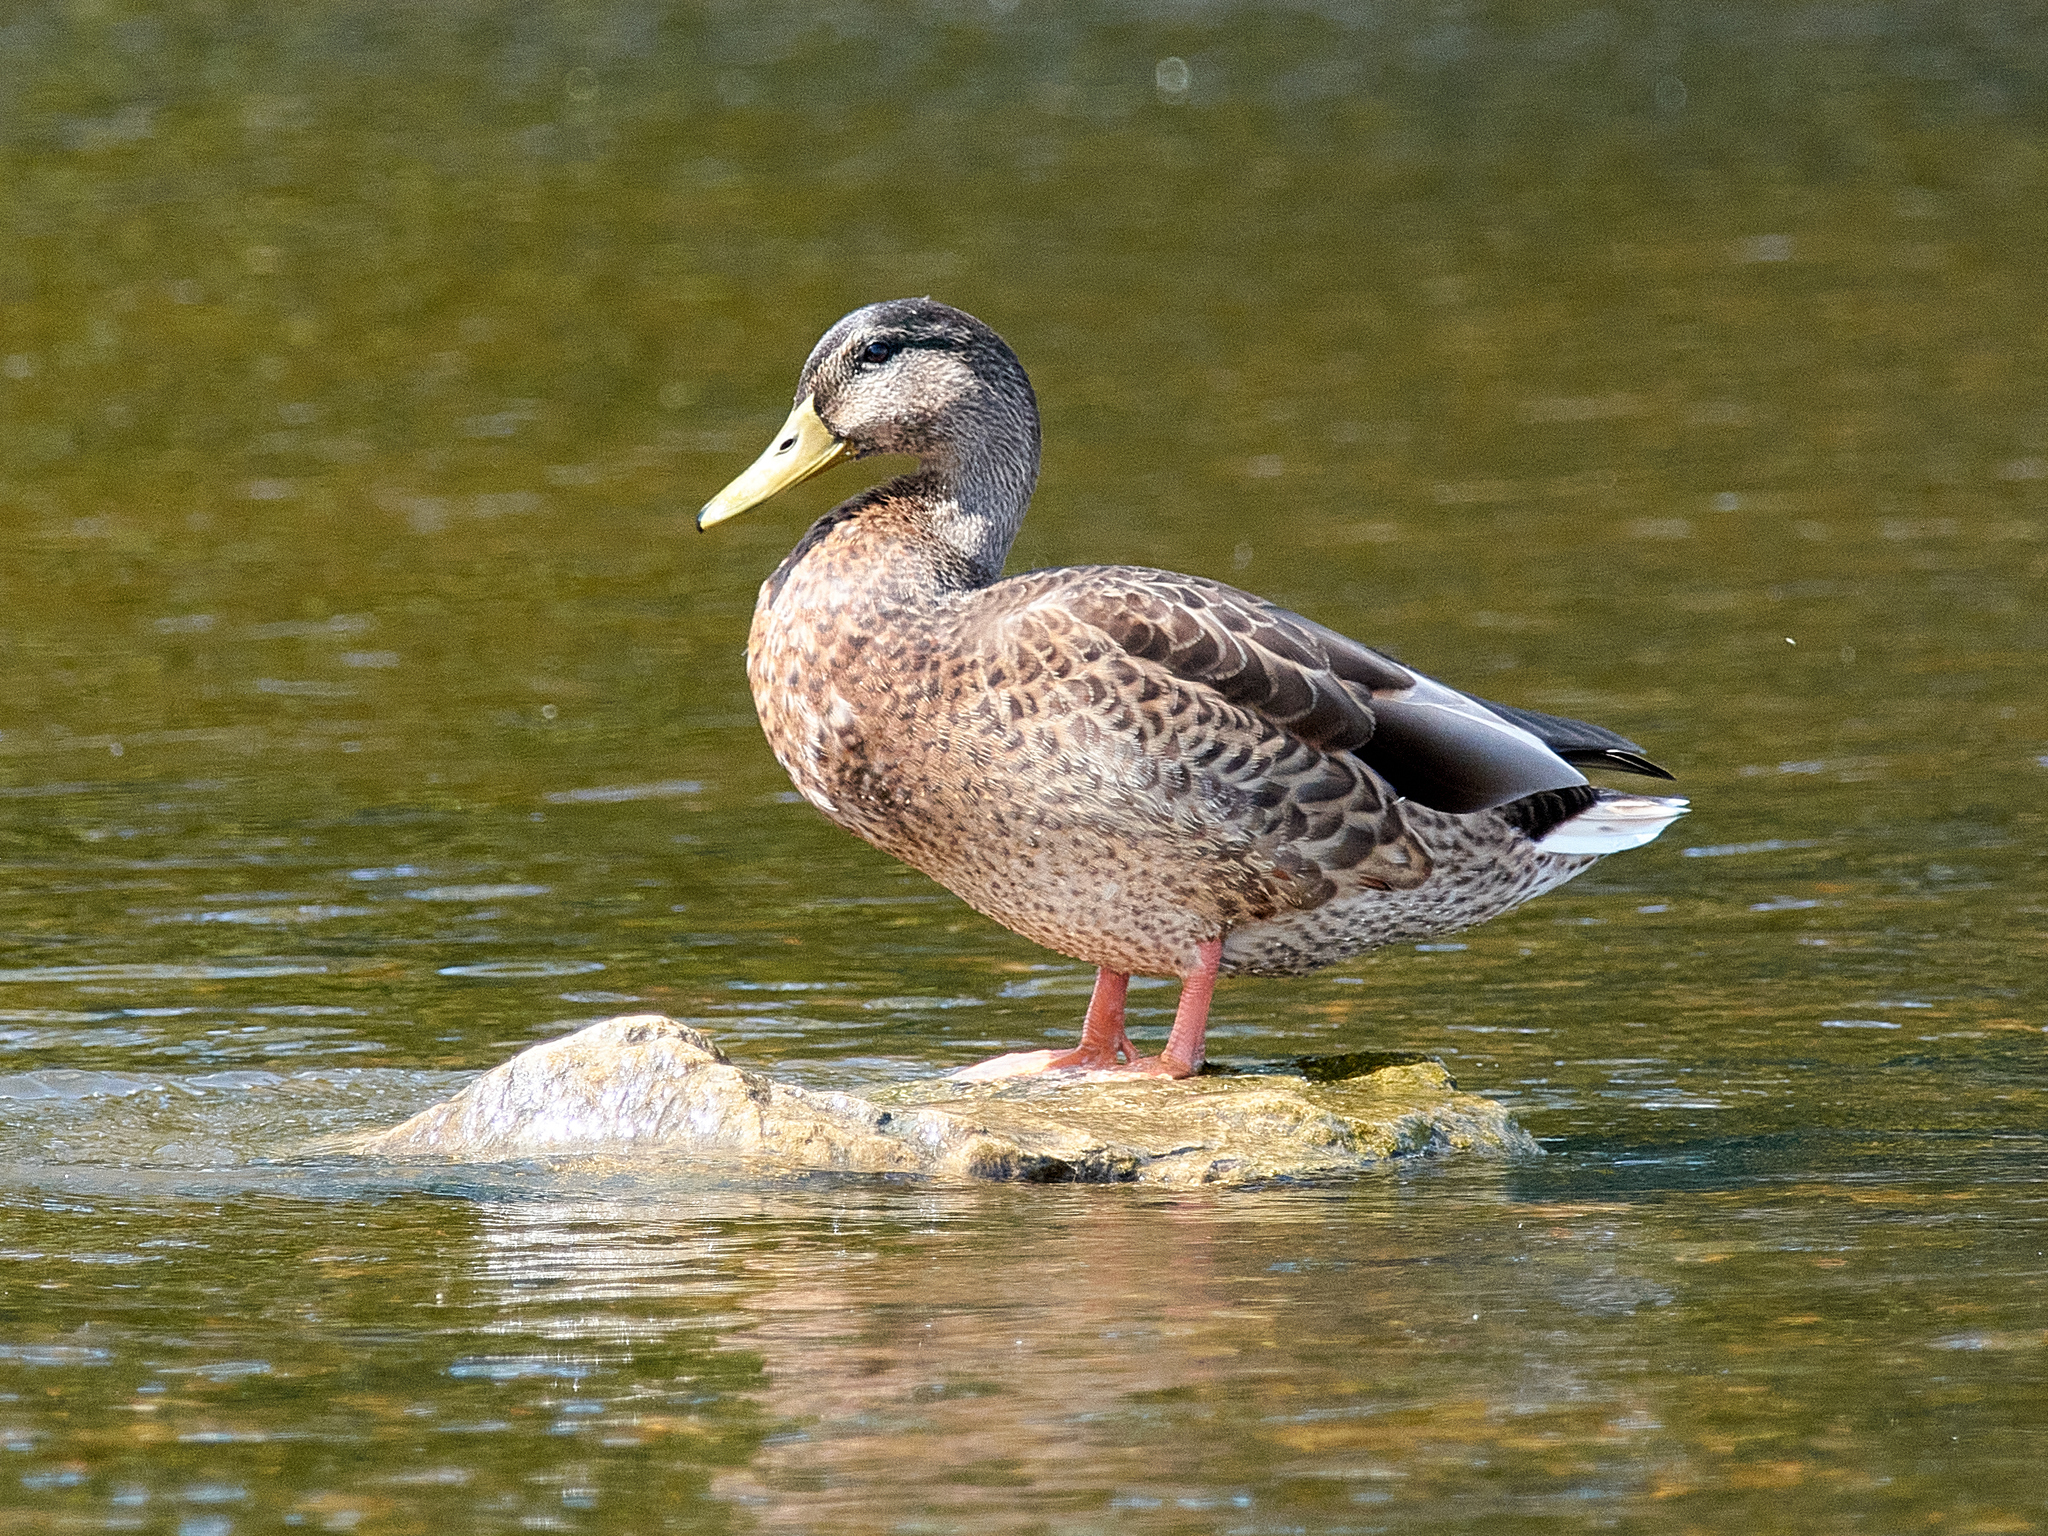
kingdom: Animalia
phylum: Chordata
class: Aves
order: Anseriformes
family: Anatidae
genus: Anas
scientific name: Anas platyrhynchos
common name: Mallard
